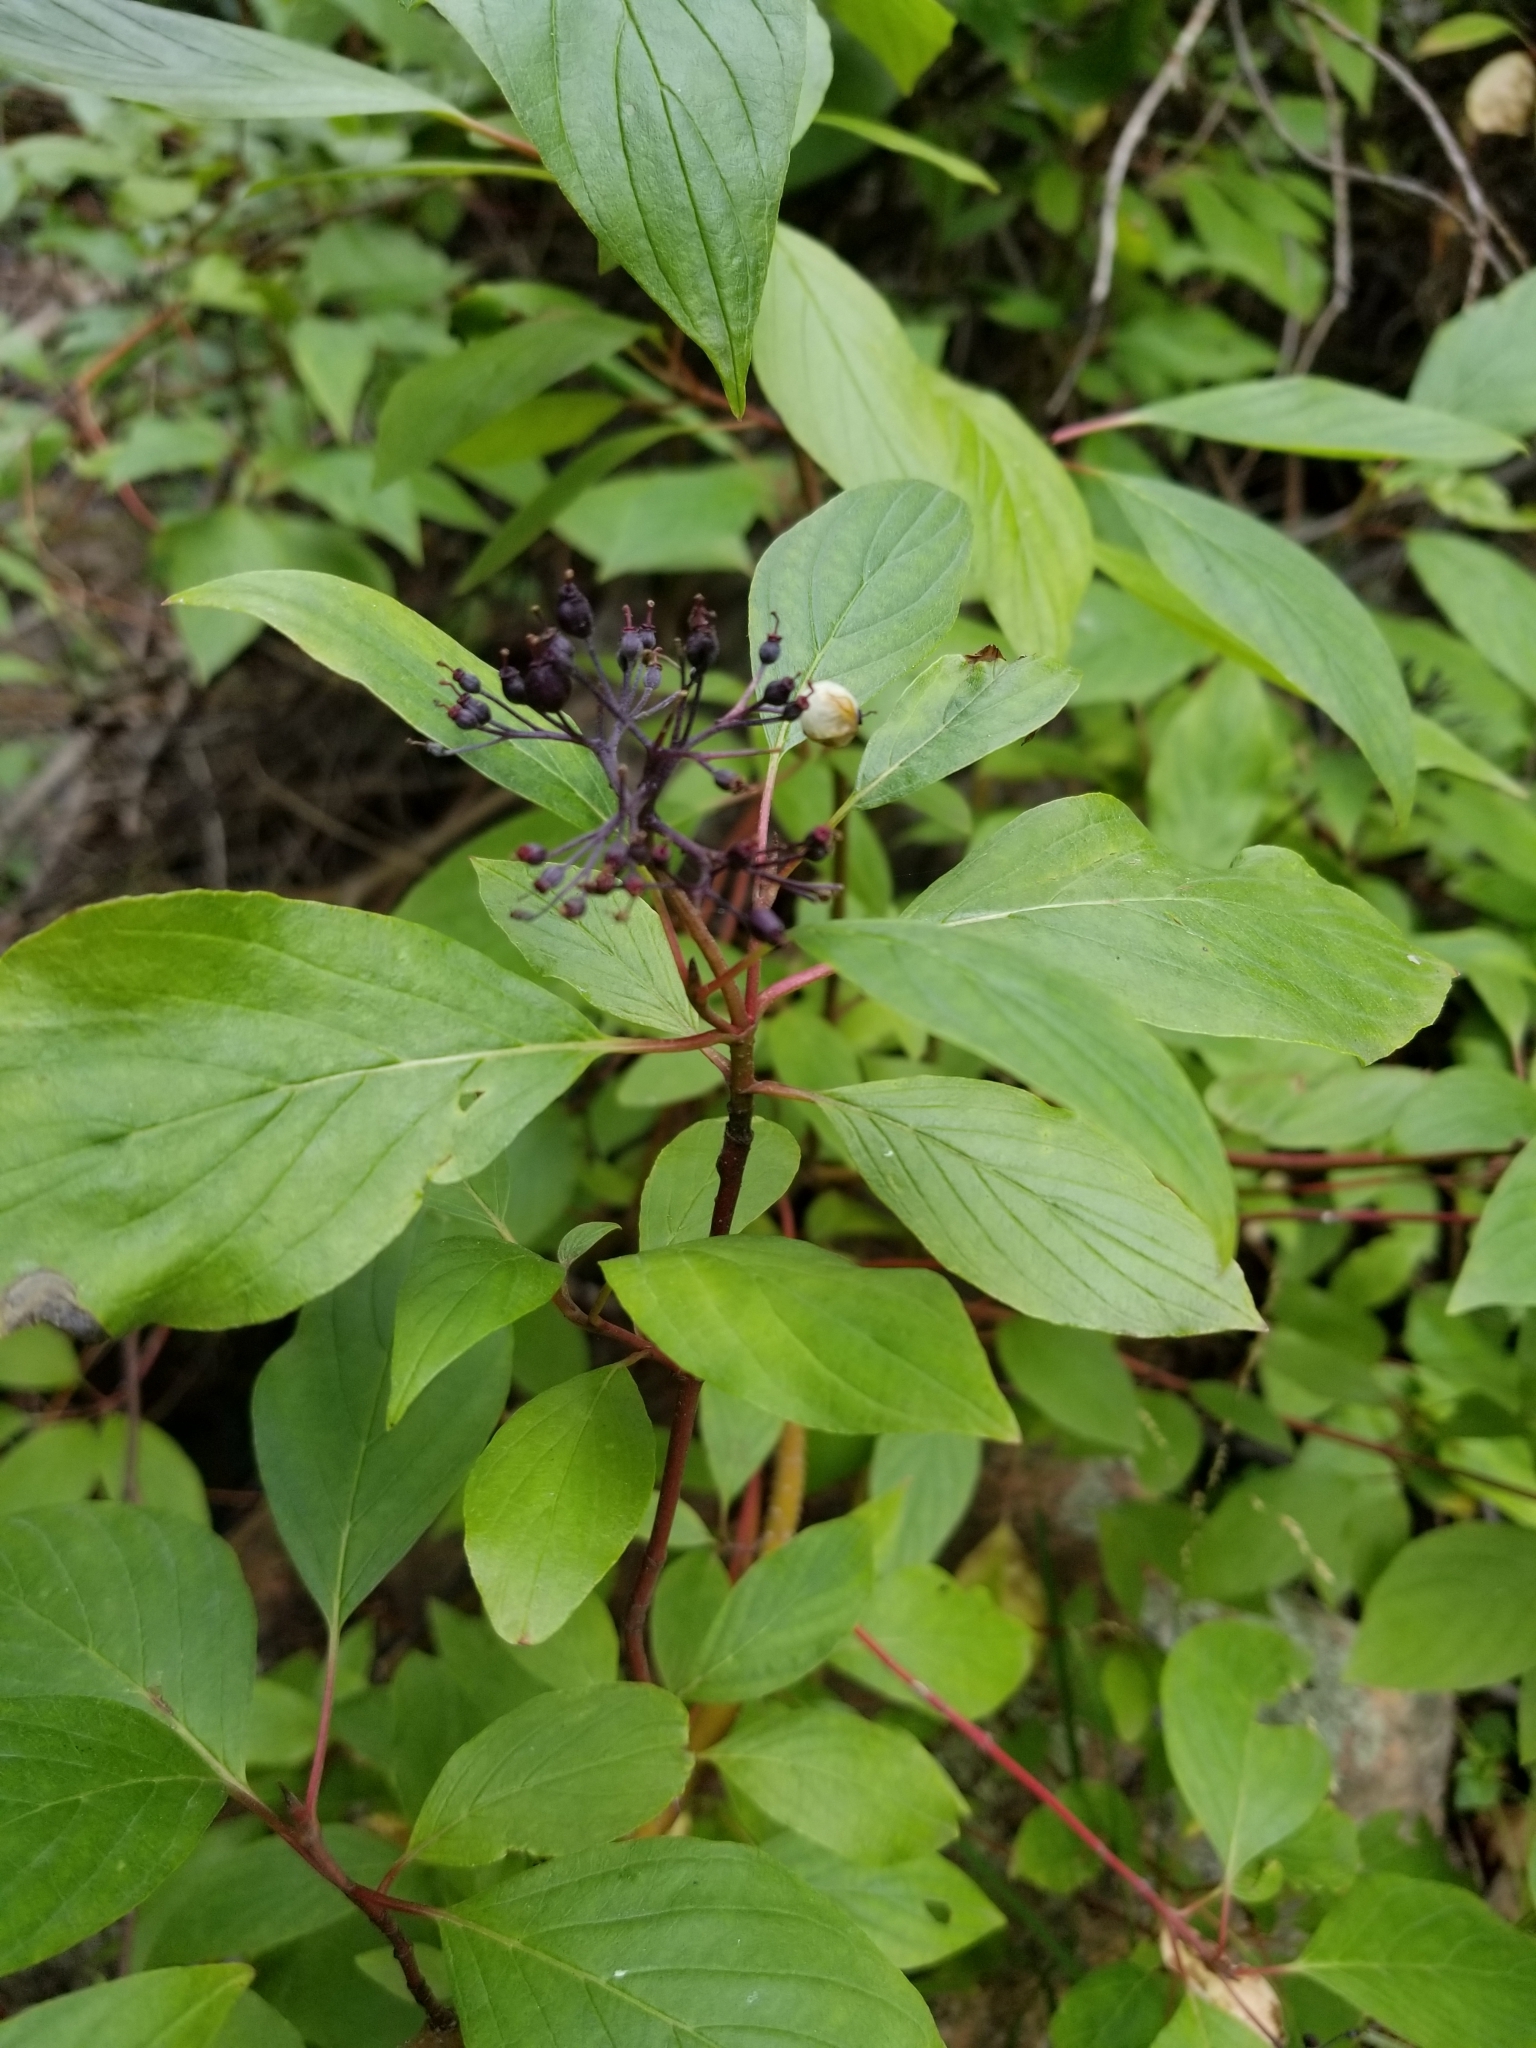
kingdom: Plantae
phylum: Tracheophyta
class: Magnoliopsida
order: Cornales
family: Cornaceae
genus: Cornus
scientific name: Cornus sericea
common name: Red-osier dogwood
